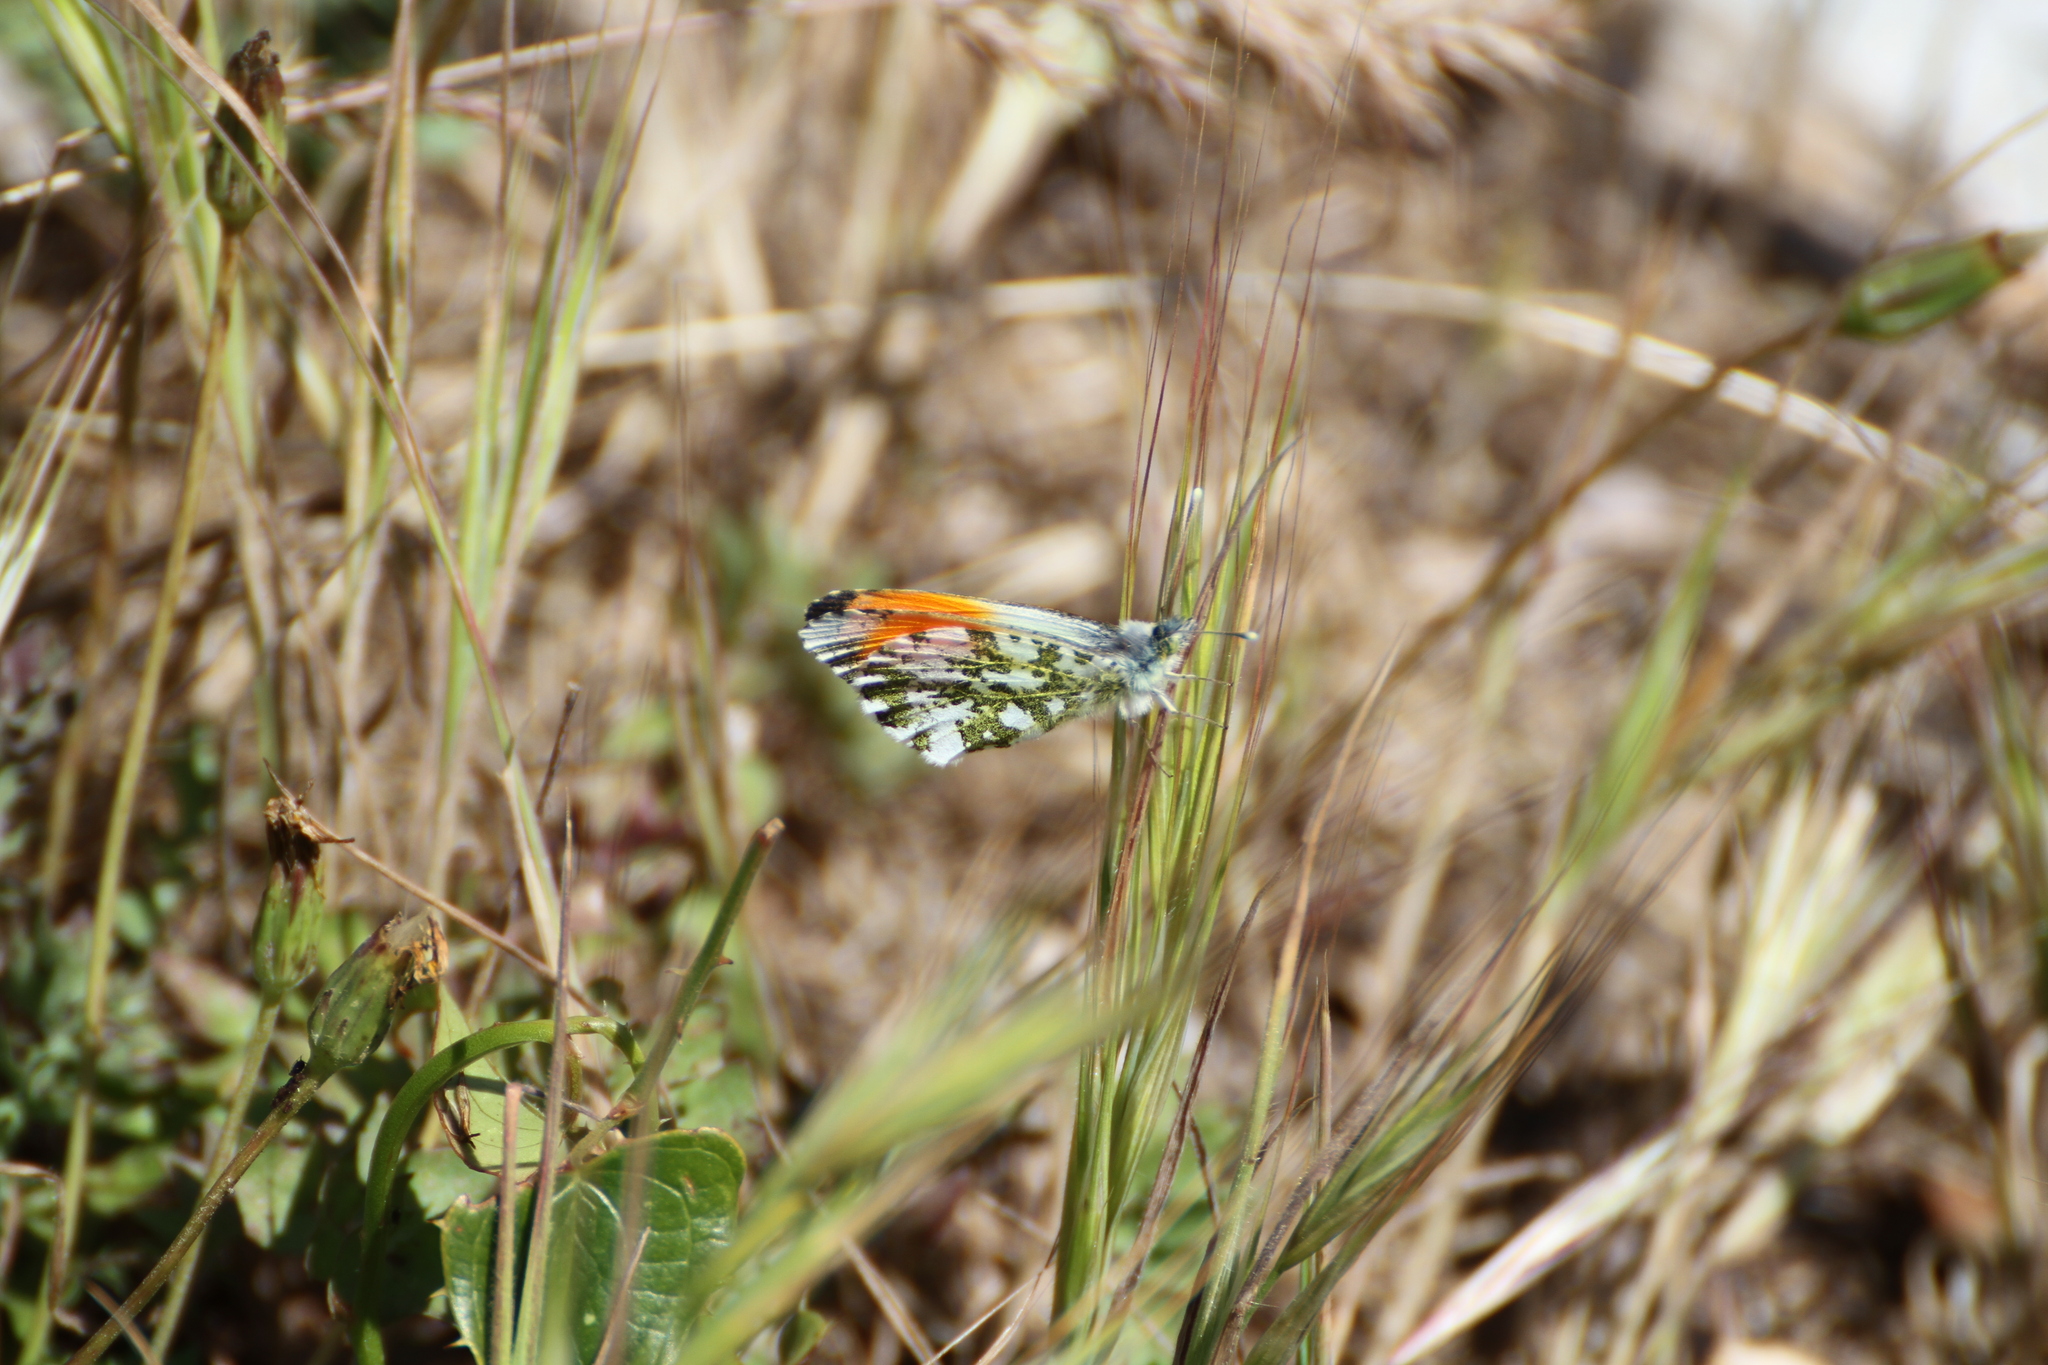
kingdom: Animalia
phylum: Arthropoda
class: Insecta
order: Lepidoptera
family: Pieridae
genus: Anthocharis
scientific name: Anthocharis cardamines
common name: Orange-tip
